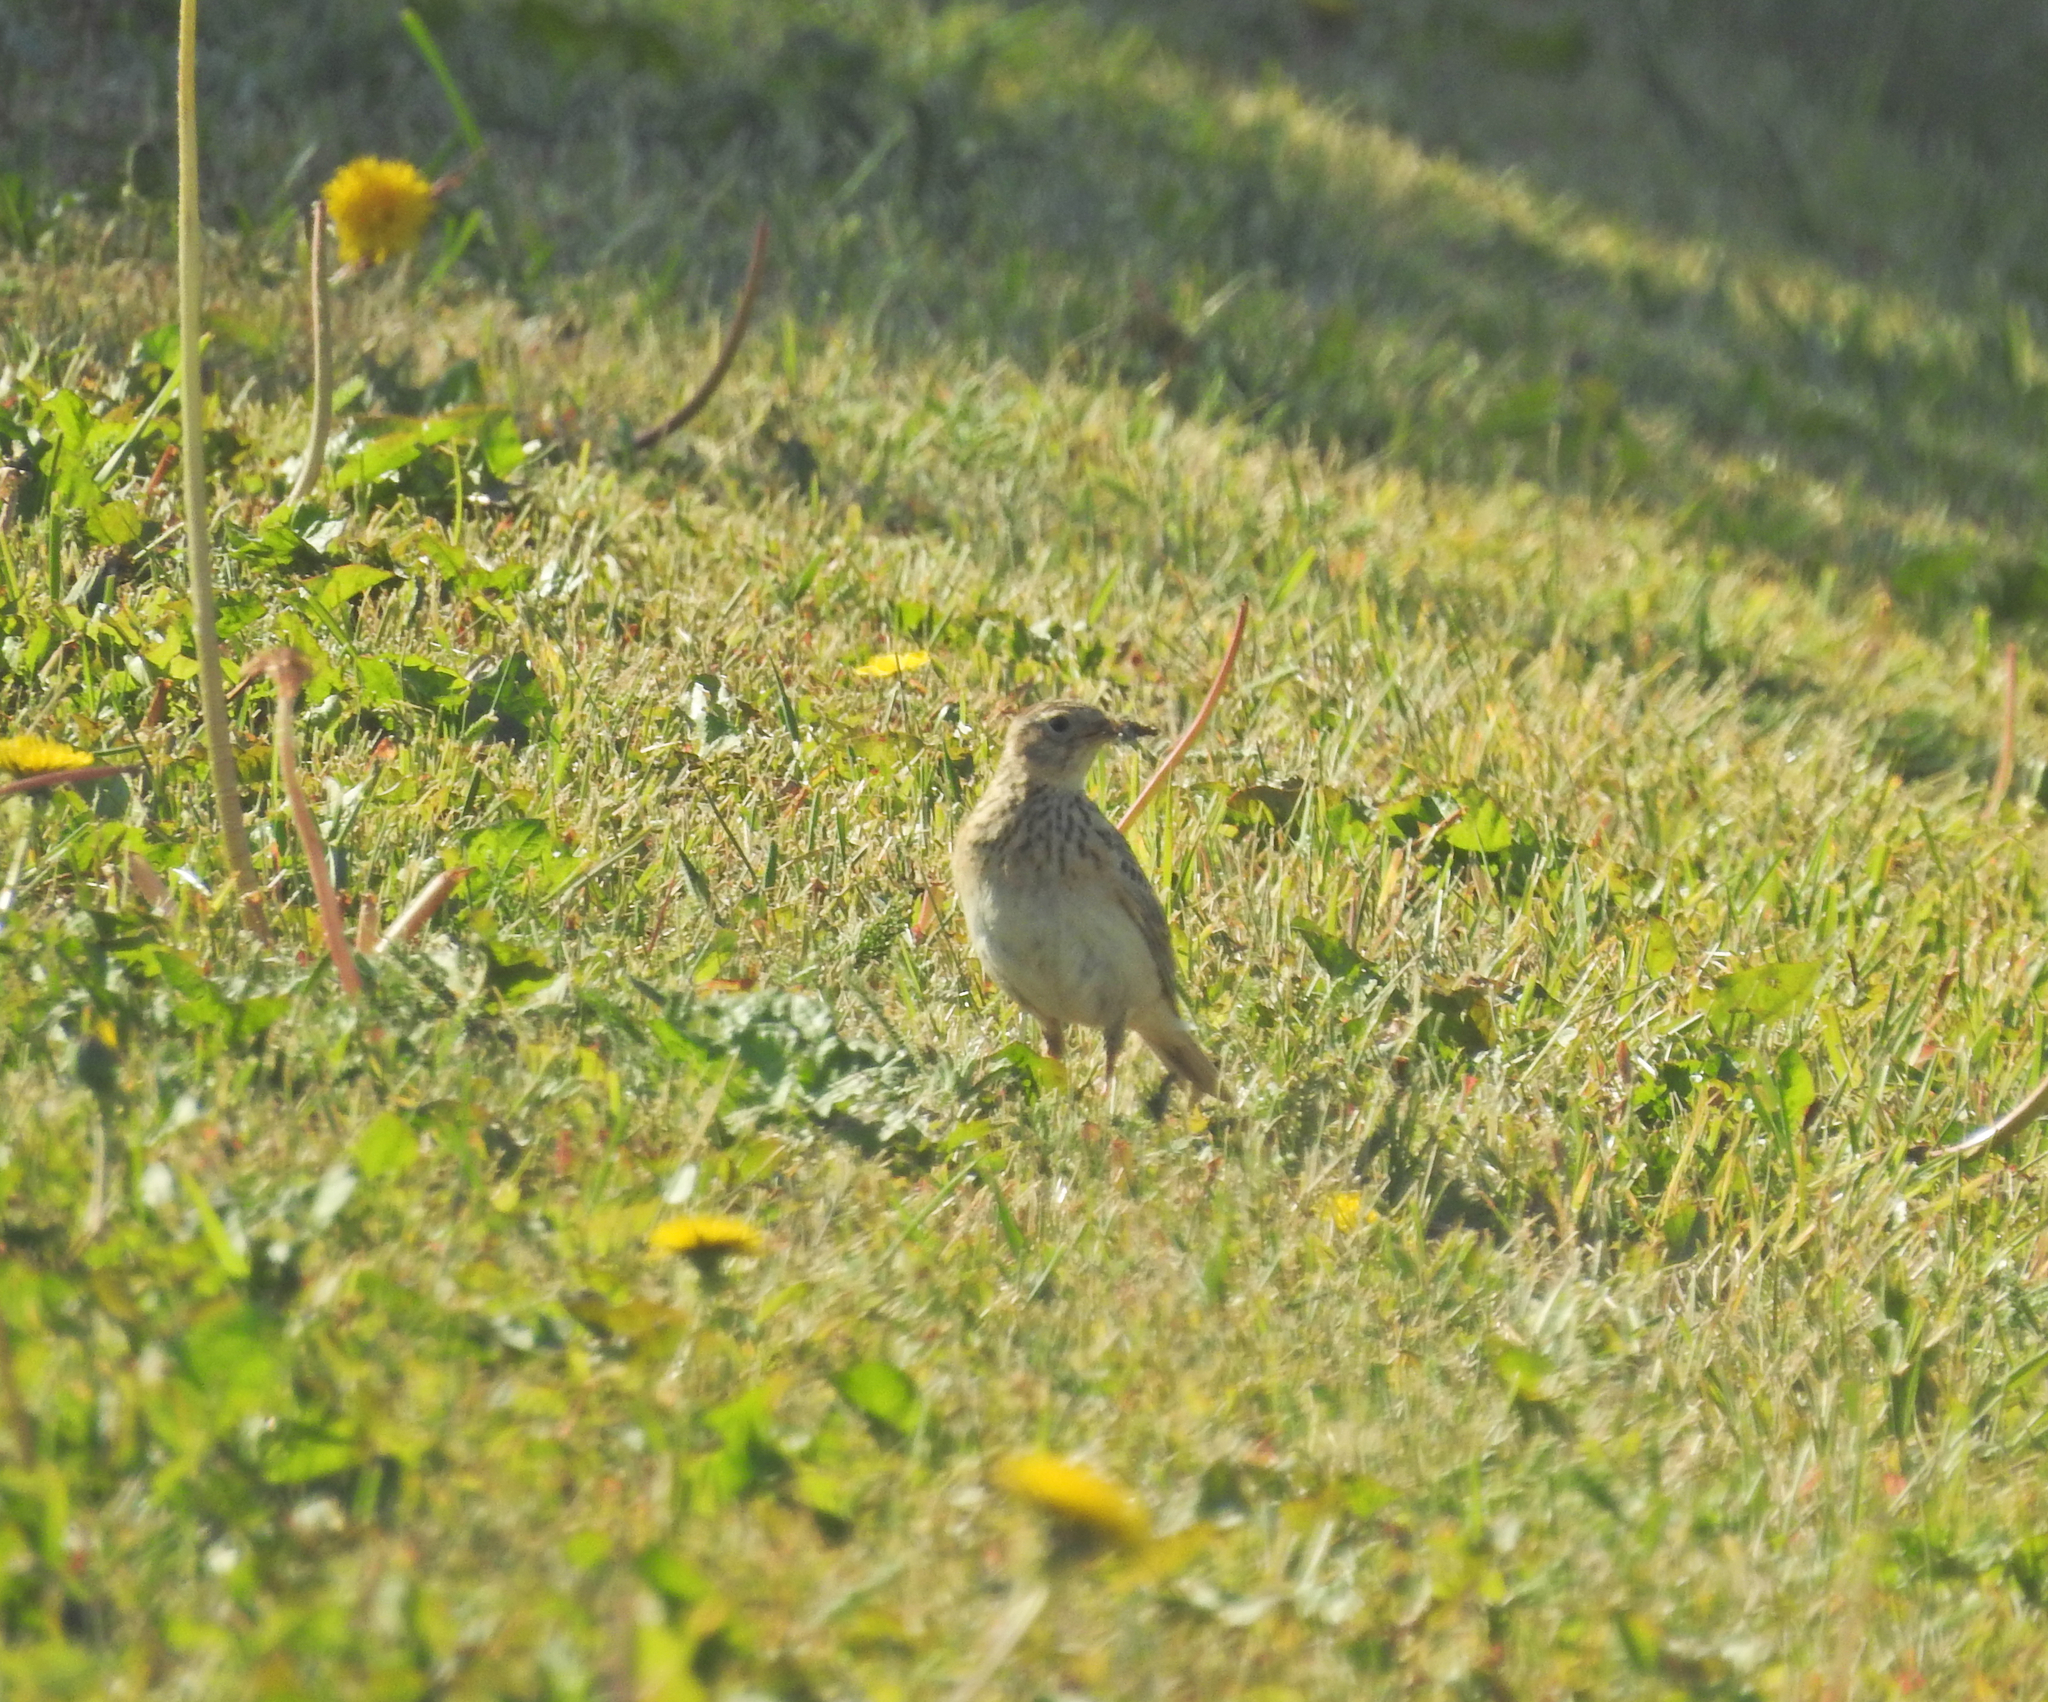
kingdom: Animalia
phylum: Chordata
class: Aves
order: Passeriformes
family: Alaudidae
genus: Alauda
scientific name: Alauda arvensis
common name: Eurasian skylark
